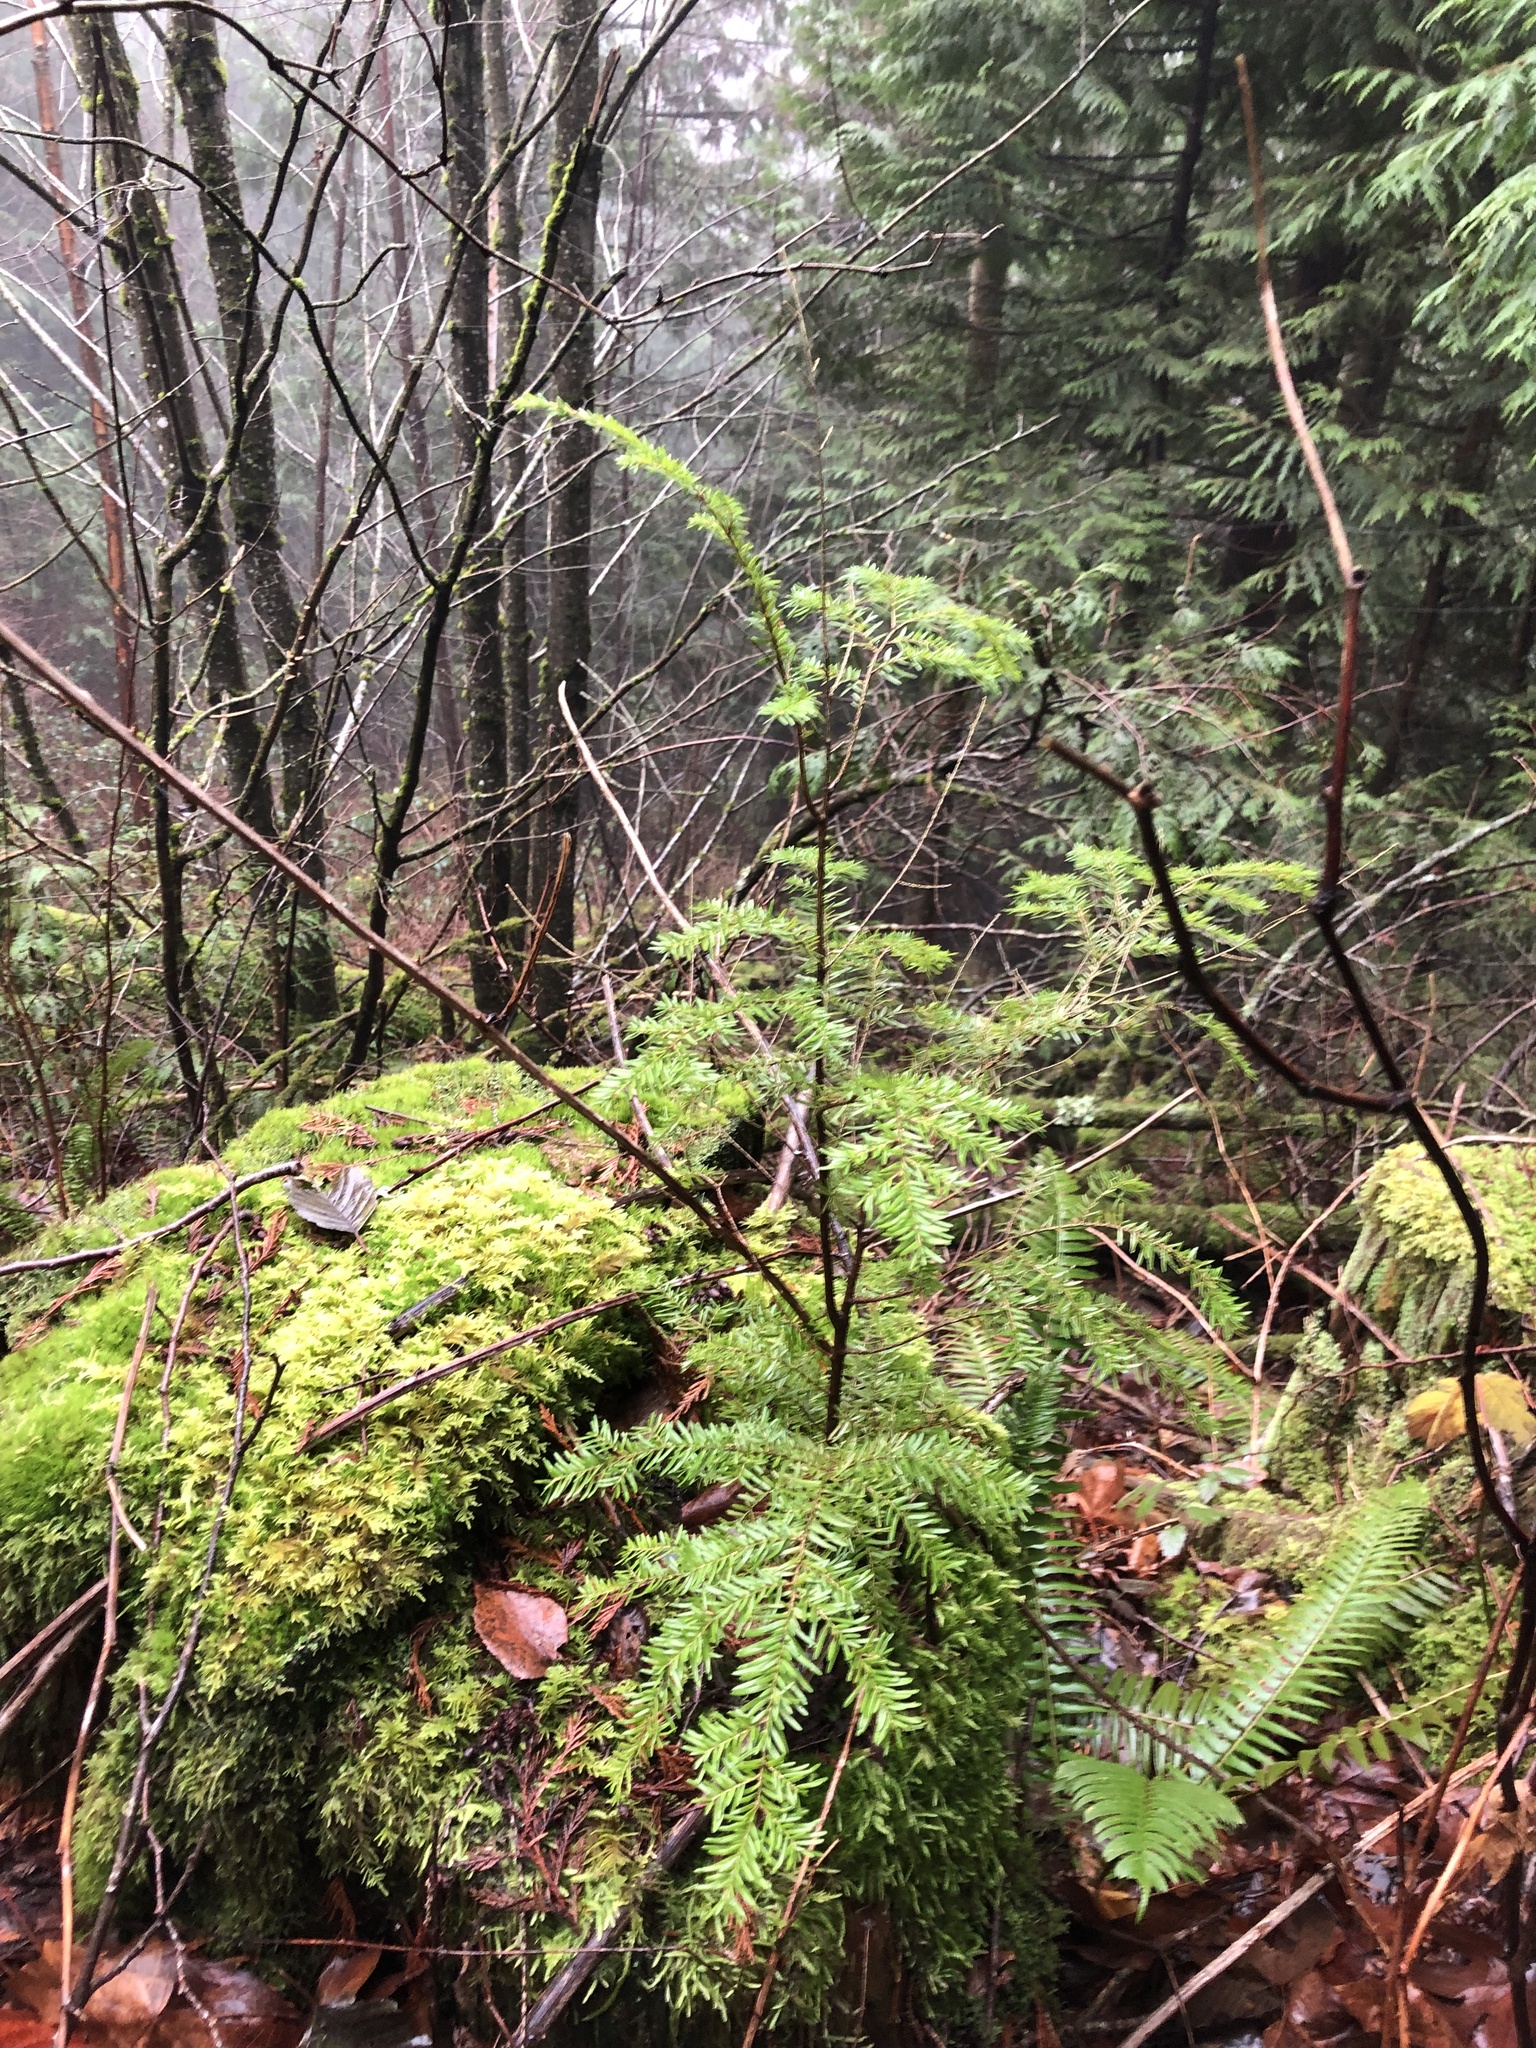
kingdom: Plantae
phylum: Tracheophyta
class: Pinopsida
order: Pinales
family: Pinaceae
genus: Tsuga
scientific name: Tsuga heterophylla
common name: Western hemlock
